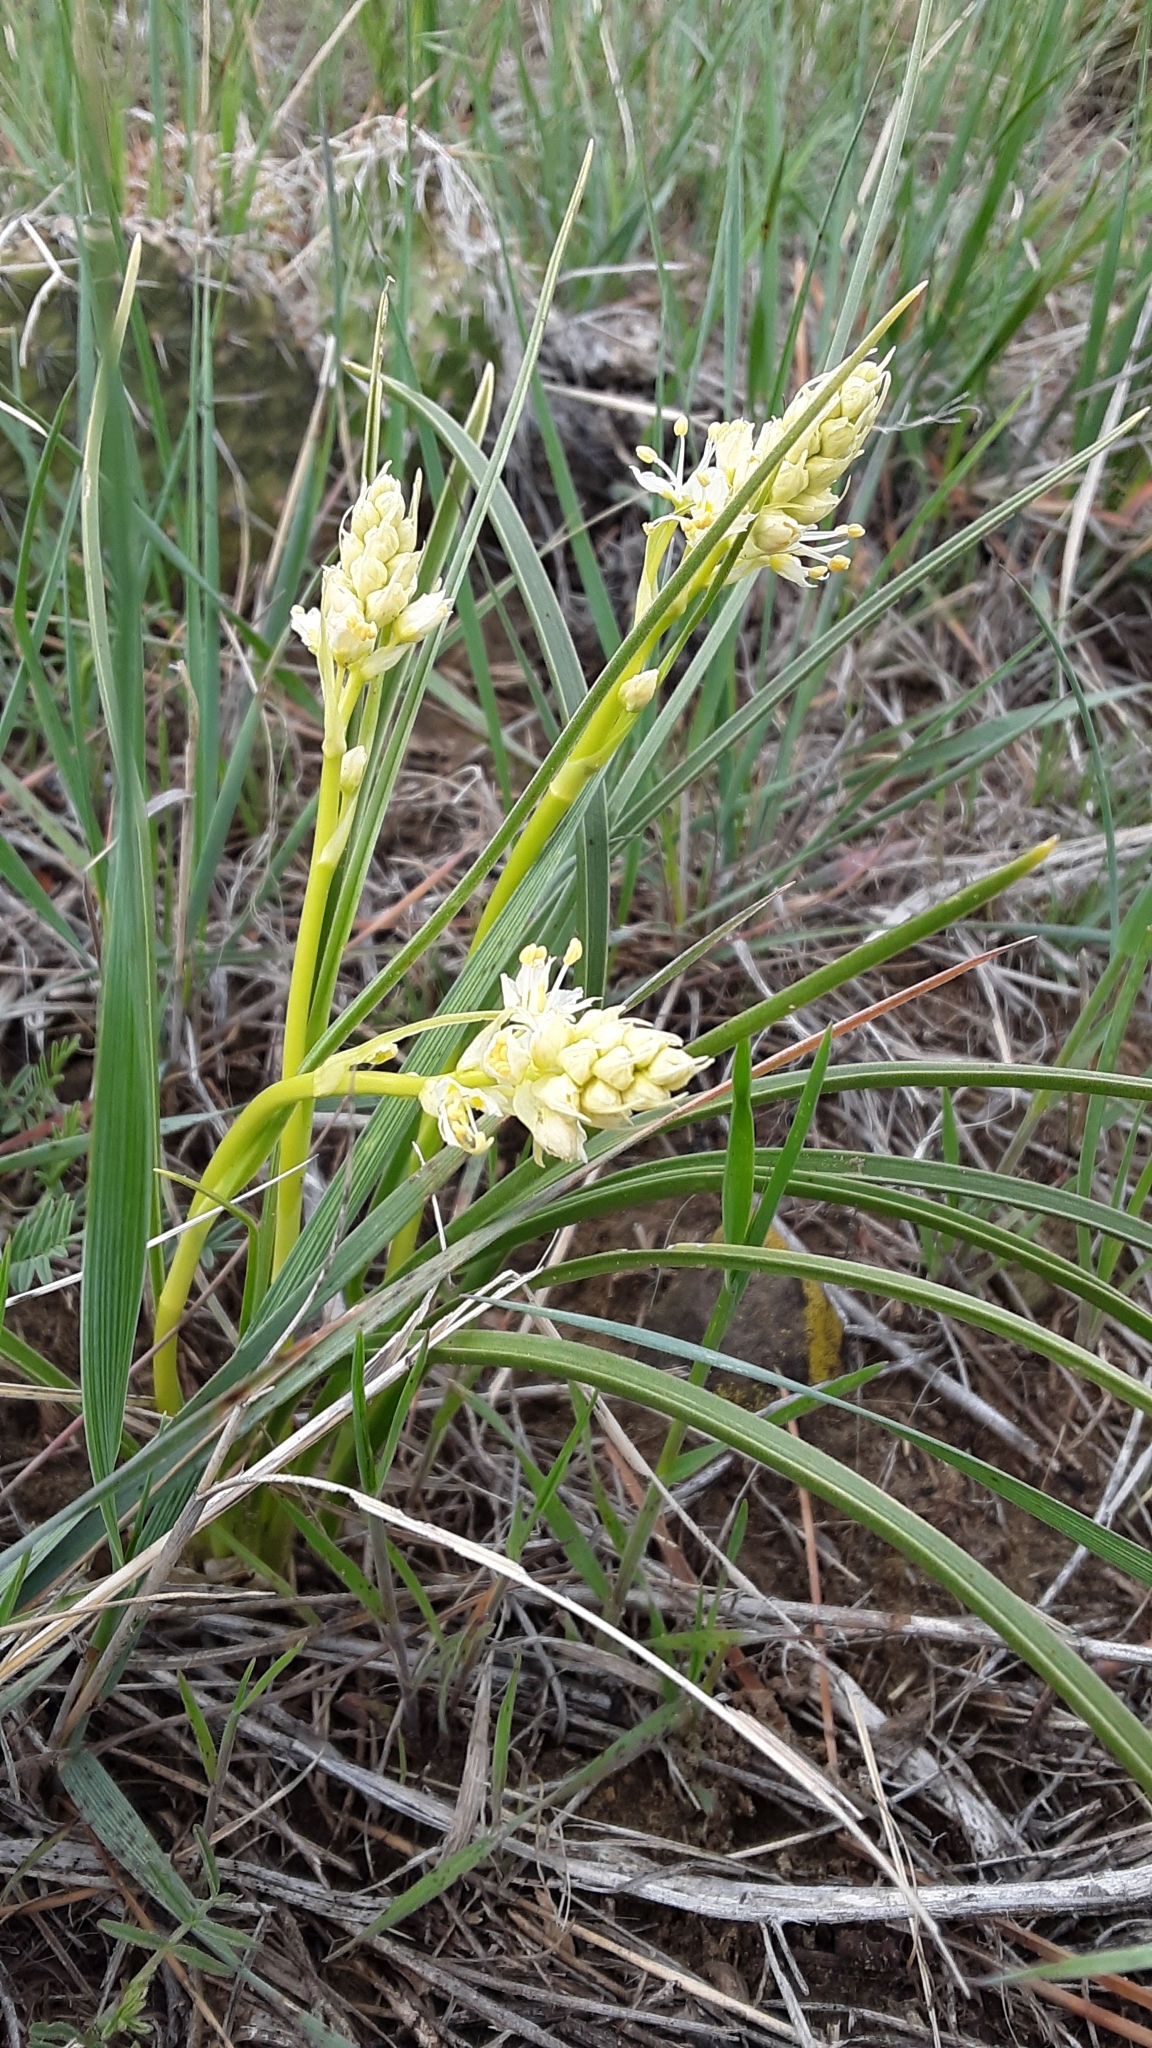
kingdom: Plantae
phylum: Tracheophyta
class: Liliopsida
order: Liliales
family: Melanthiaceae
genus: Toxicoscordion
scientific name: Toxicoscordion venenosum
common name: Meadow death camas
